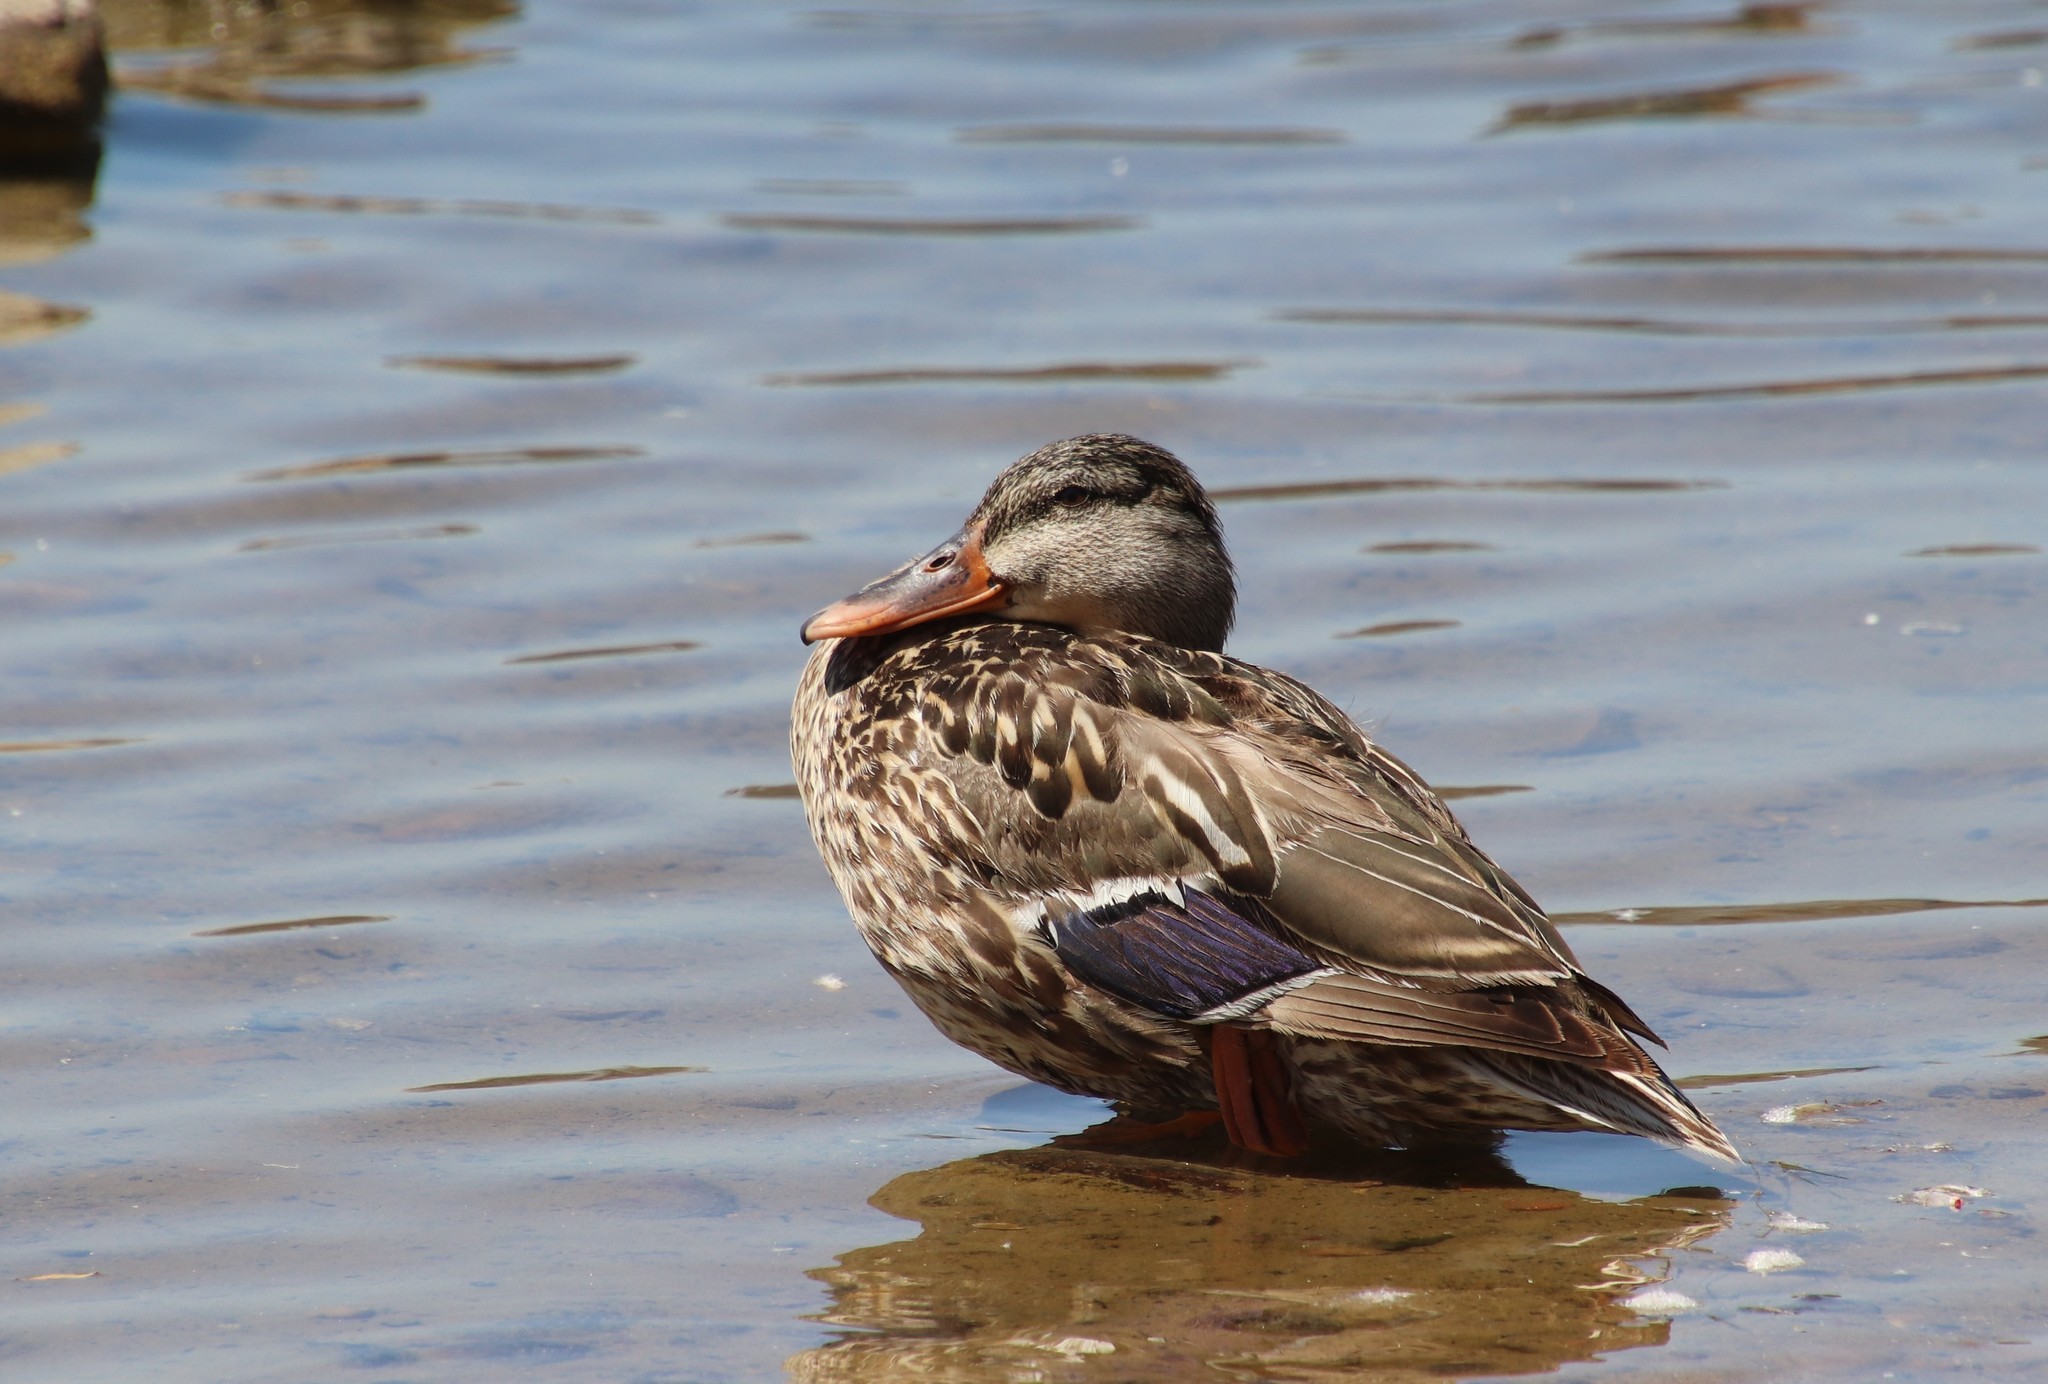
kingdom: Animalia
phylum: Chordata
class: Aves
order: Anseriformes
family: Anatidae
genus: Anas
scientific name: Anas platyrhynchos
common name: Mallard
